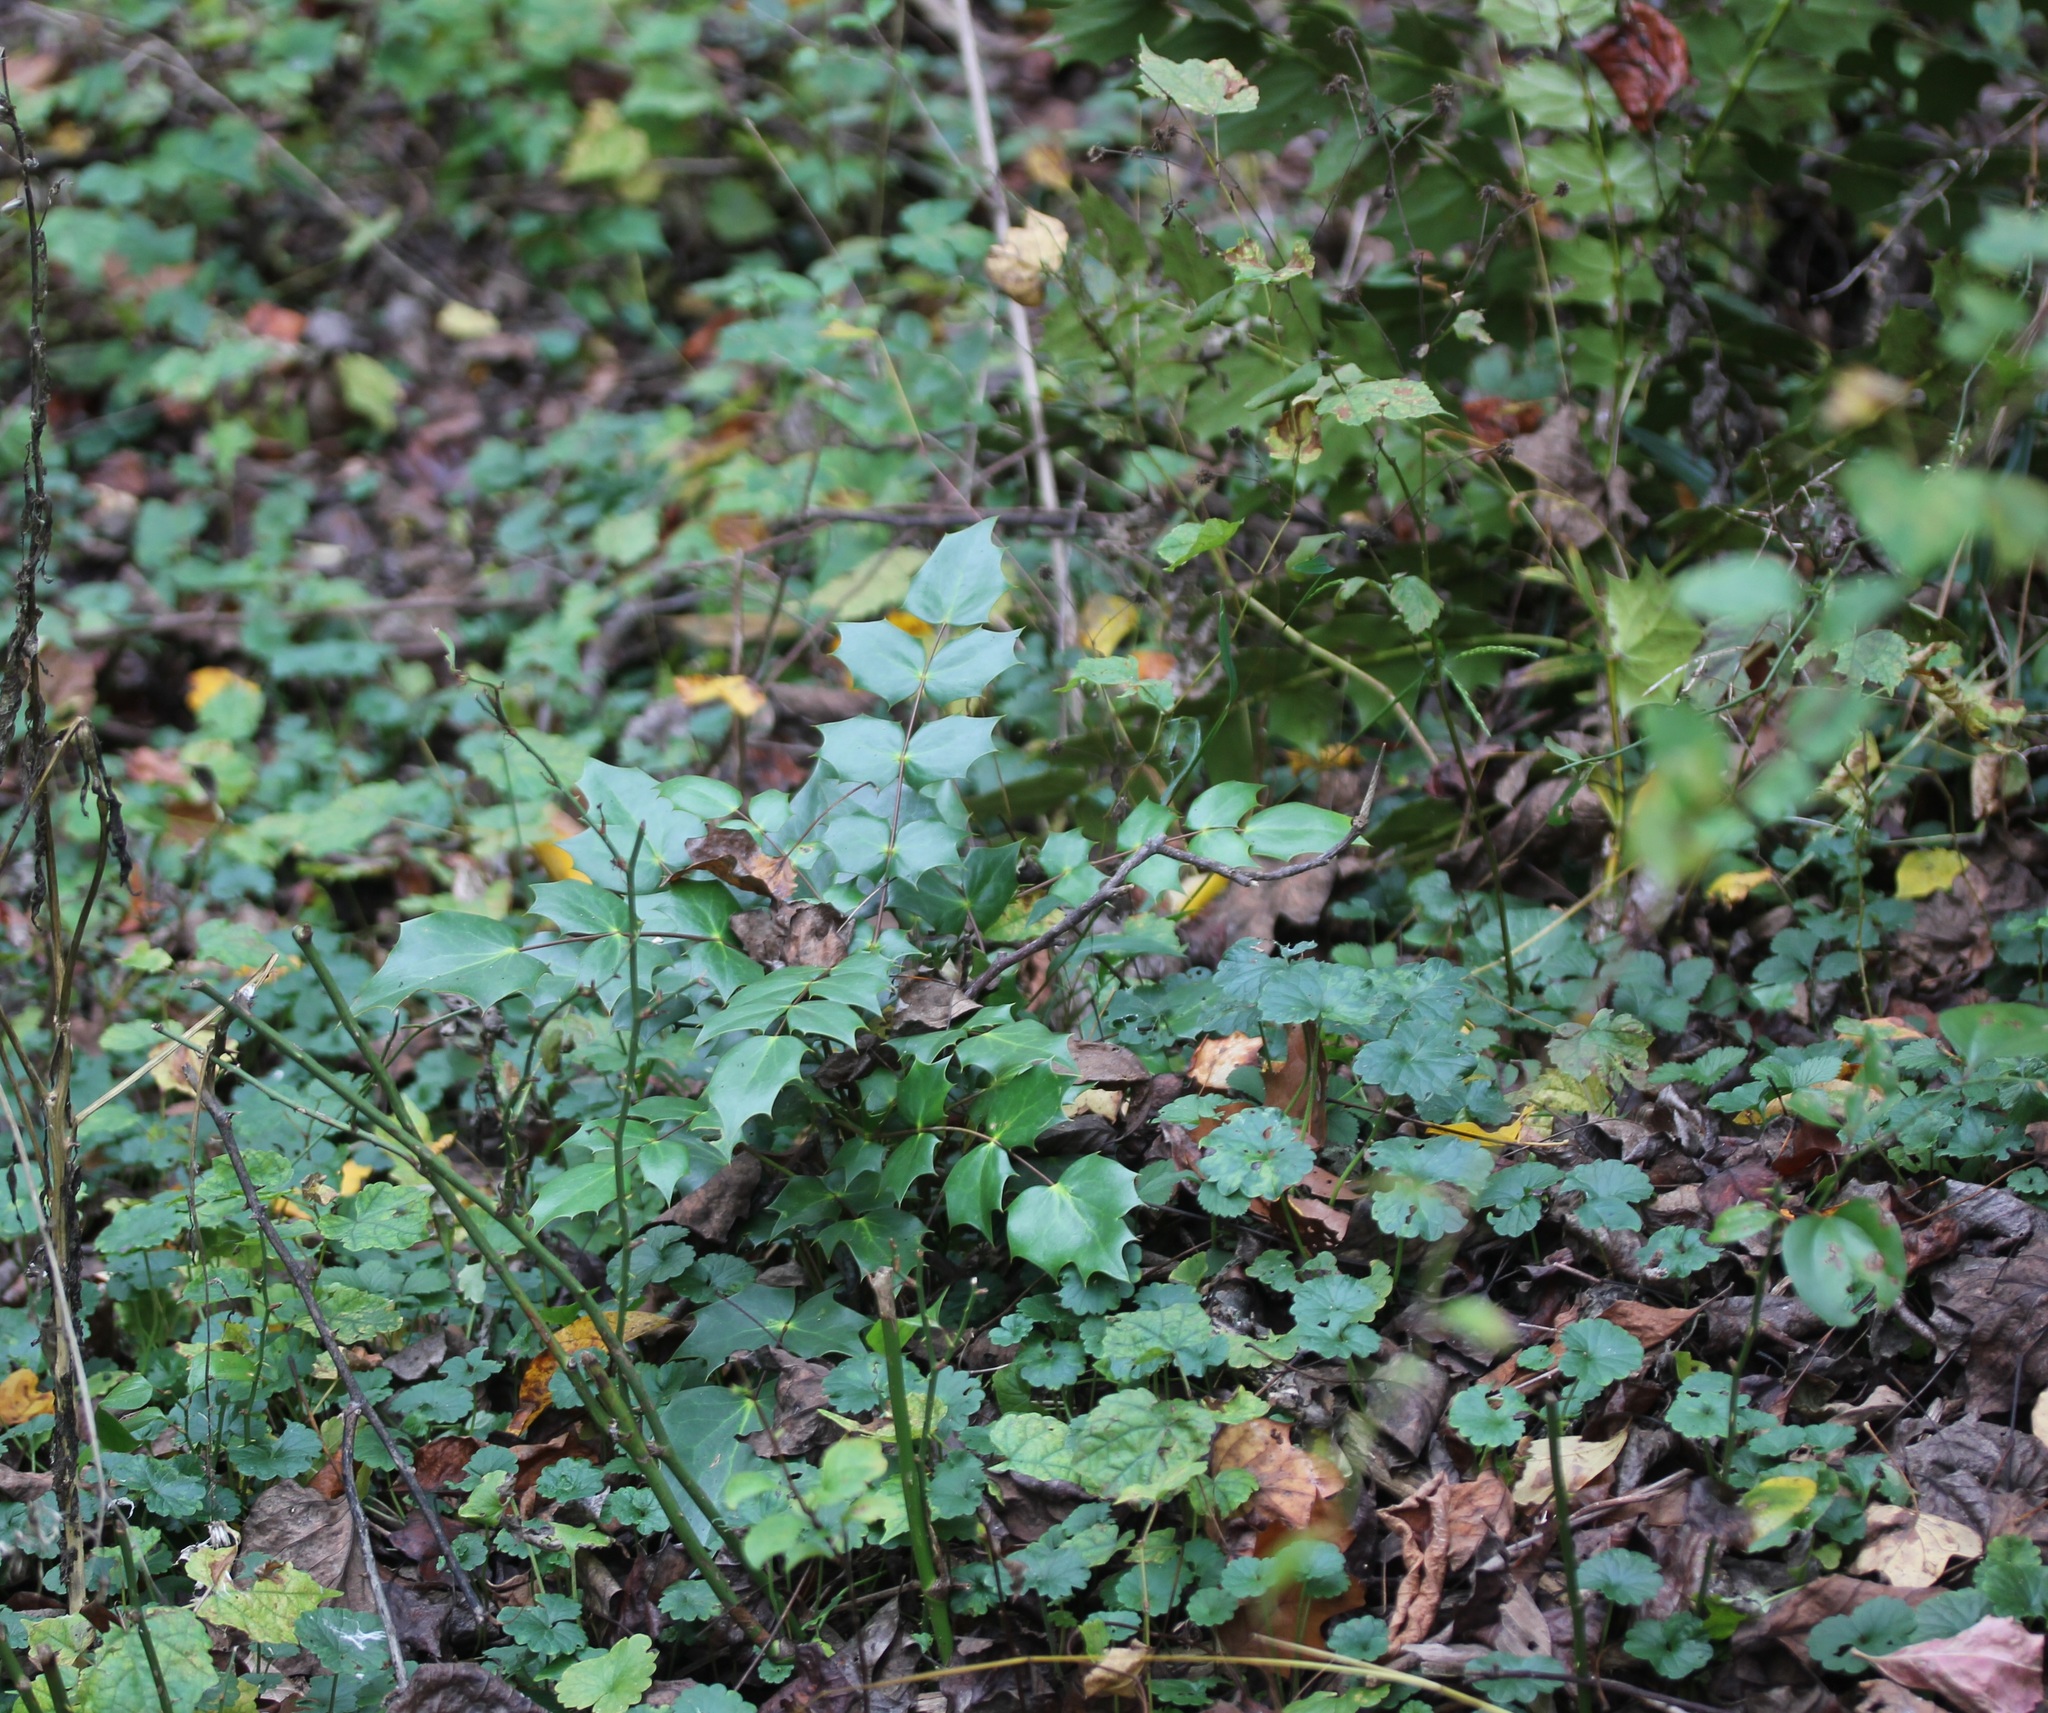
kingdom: Plantae
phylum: Tracheophyta
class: Magnoliopsida
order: Ranunculales
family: Berberidaceae
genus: Mahonia
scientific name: Mahonia bealei
